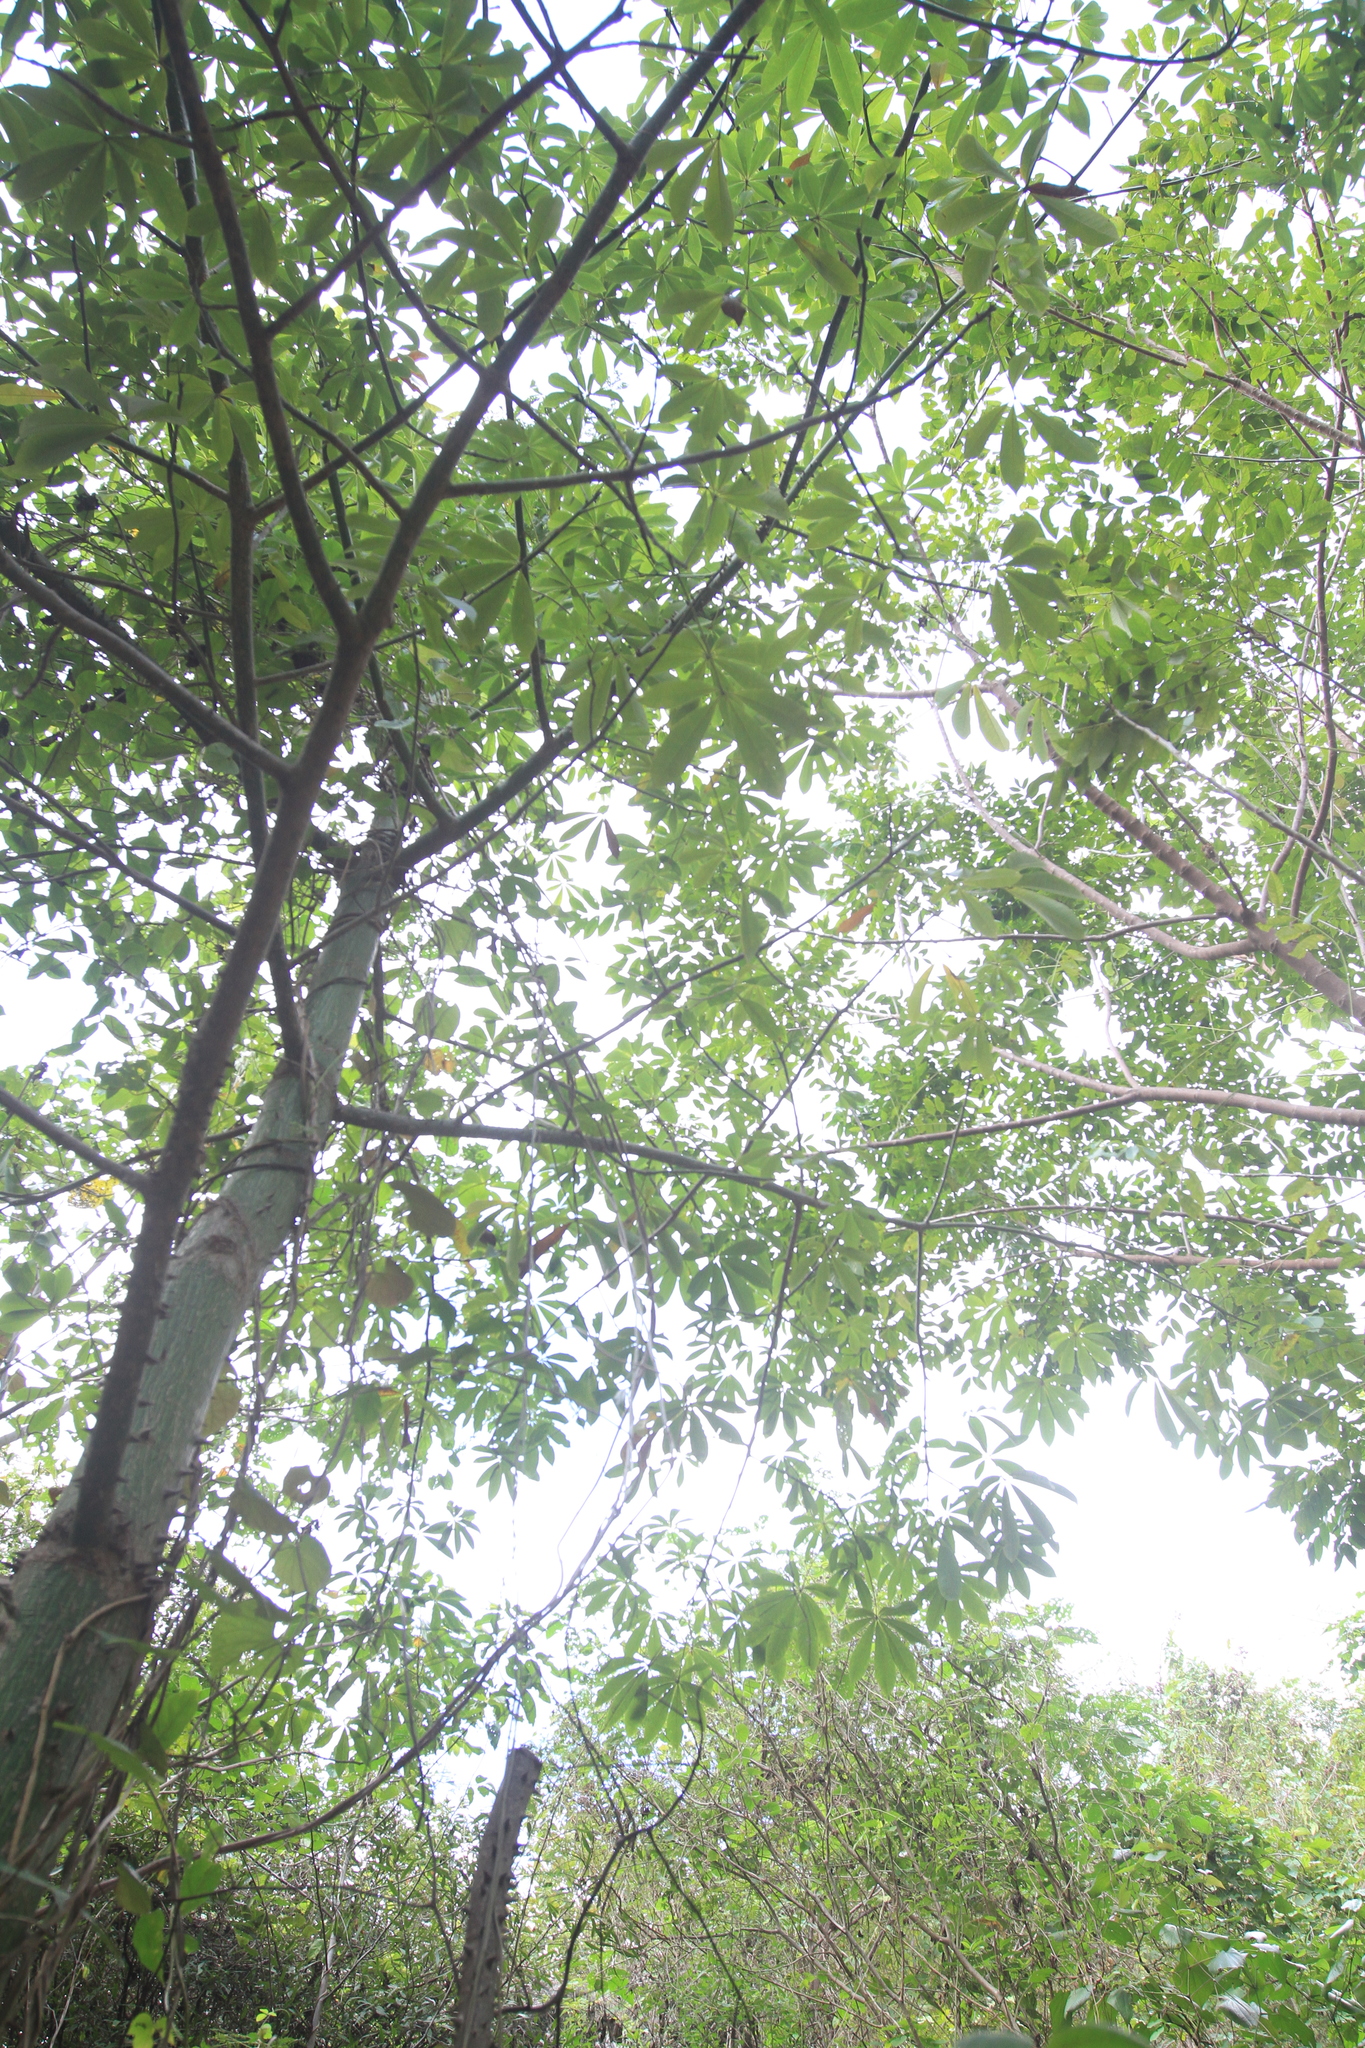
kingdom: Plantae
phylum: Tracheophyta
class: Magnoliopsida
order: Malvales
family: Malvaceae
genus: Ceiba
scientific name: Ceiba pentandra
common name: Kapok
